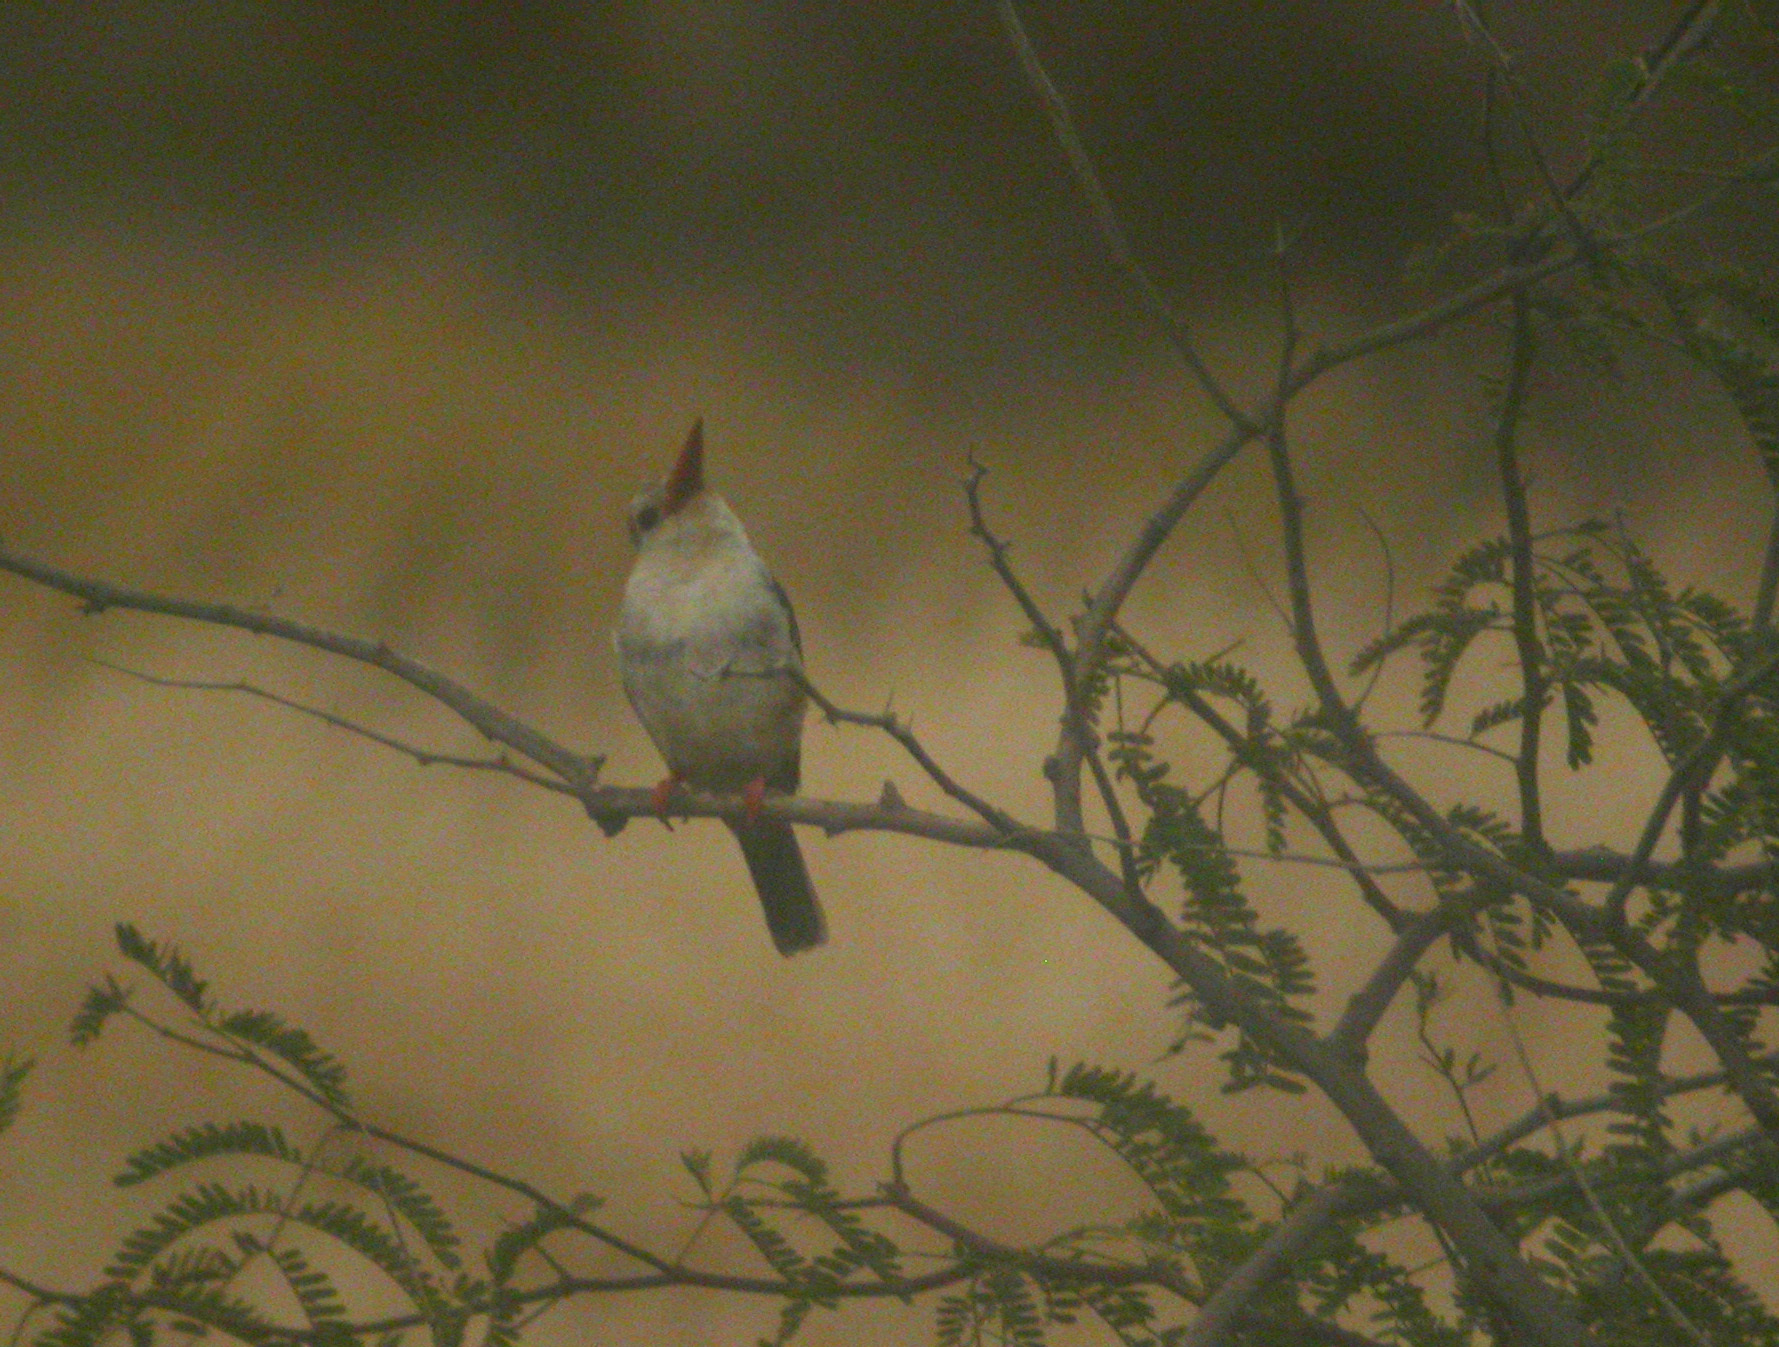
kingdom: Animalia
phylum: Chordata
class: Aves
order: Coraciiformes
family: Alcedinidae
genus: Halcyon
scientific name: Halcyon leucocephala
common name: Grey-headed kingfisher
